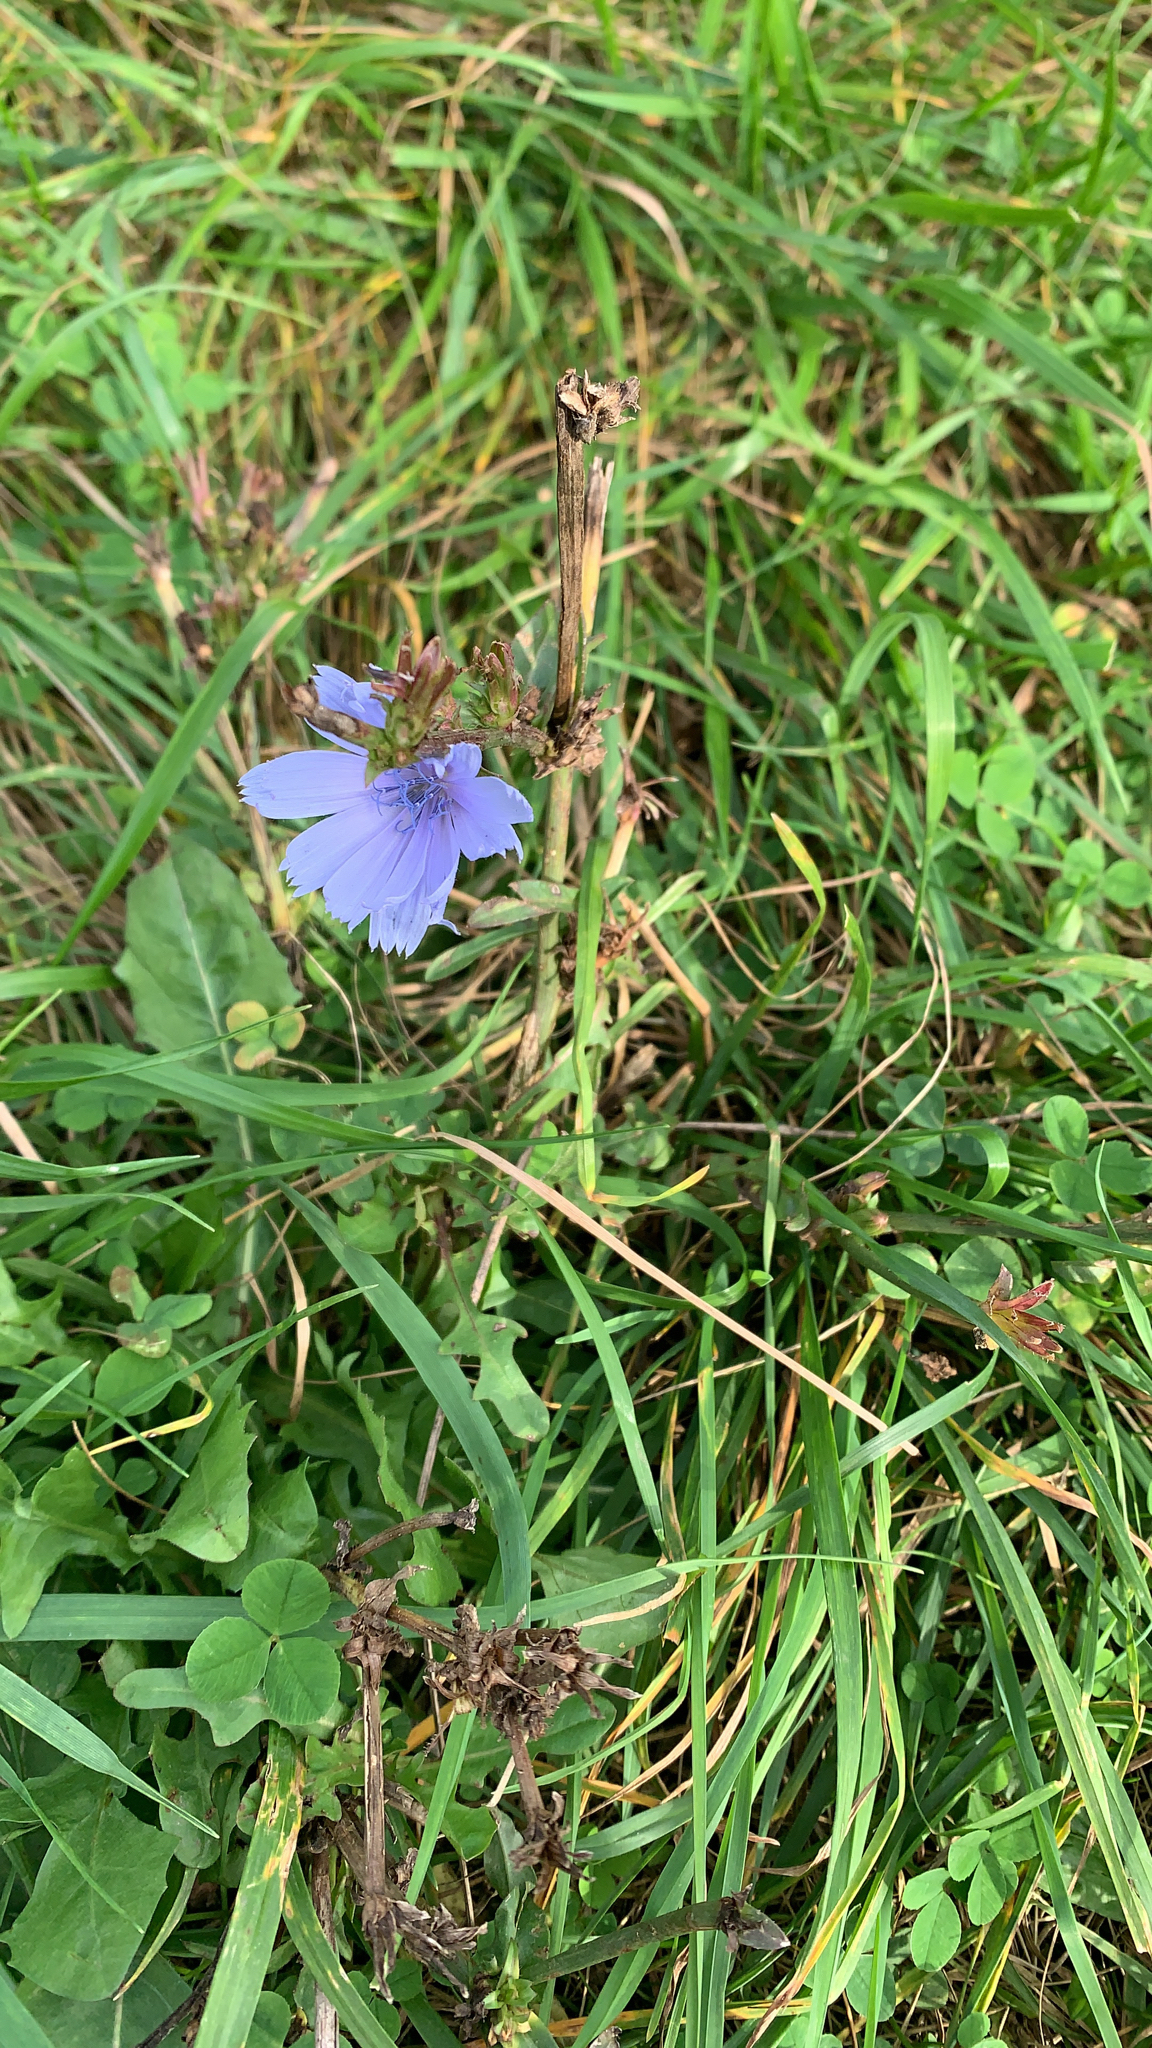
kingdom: Plantae
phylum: Tracheophyta
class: Magnoliopsida
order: Asterales
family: Asteraceae
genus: Cichorium
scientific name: Cichorium intybus
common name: Chicory
